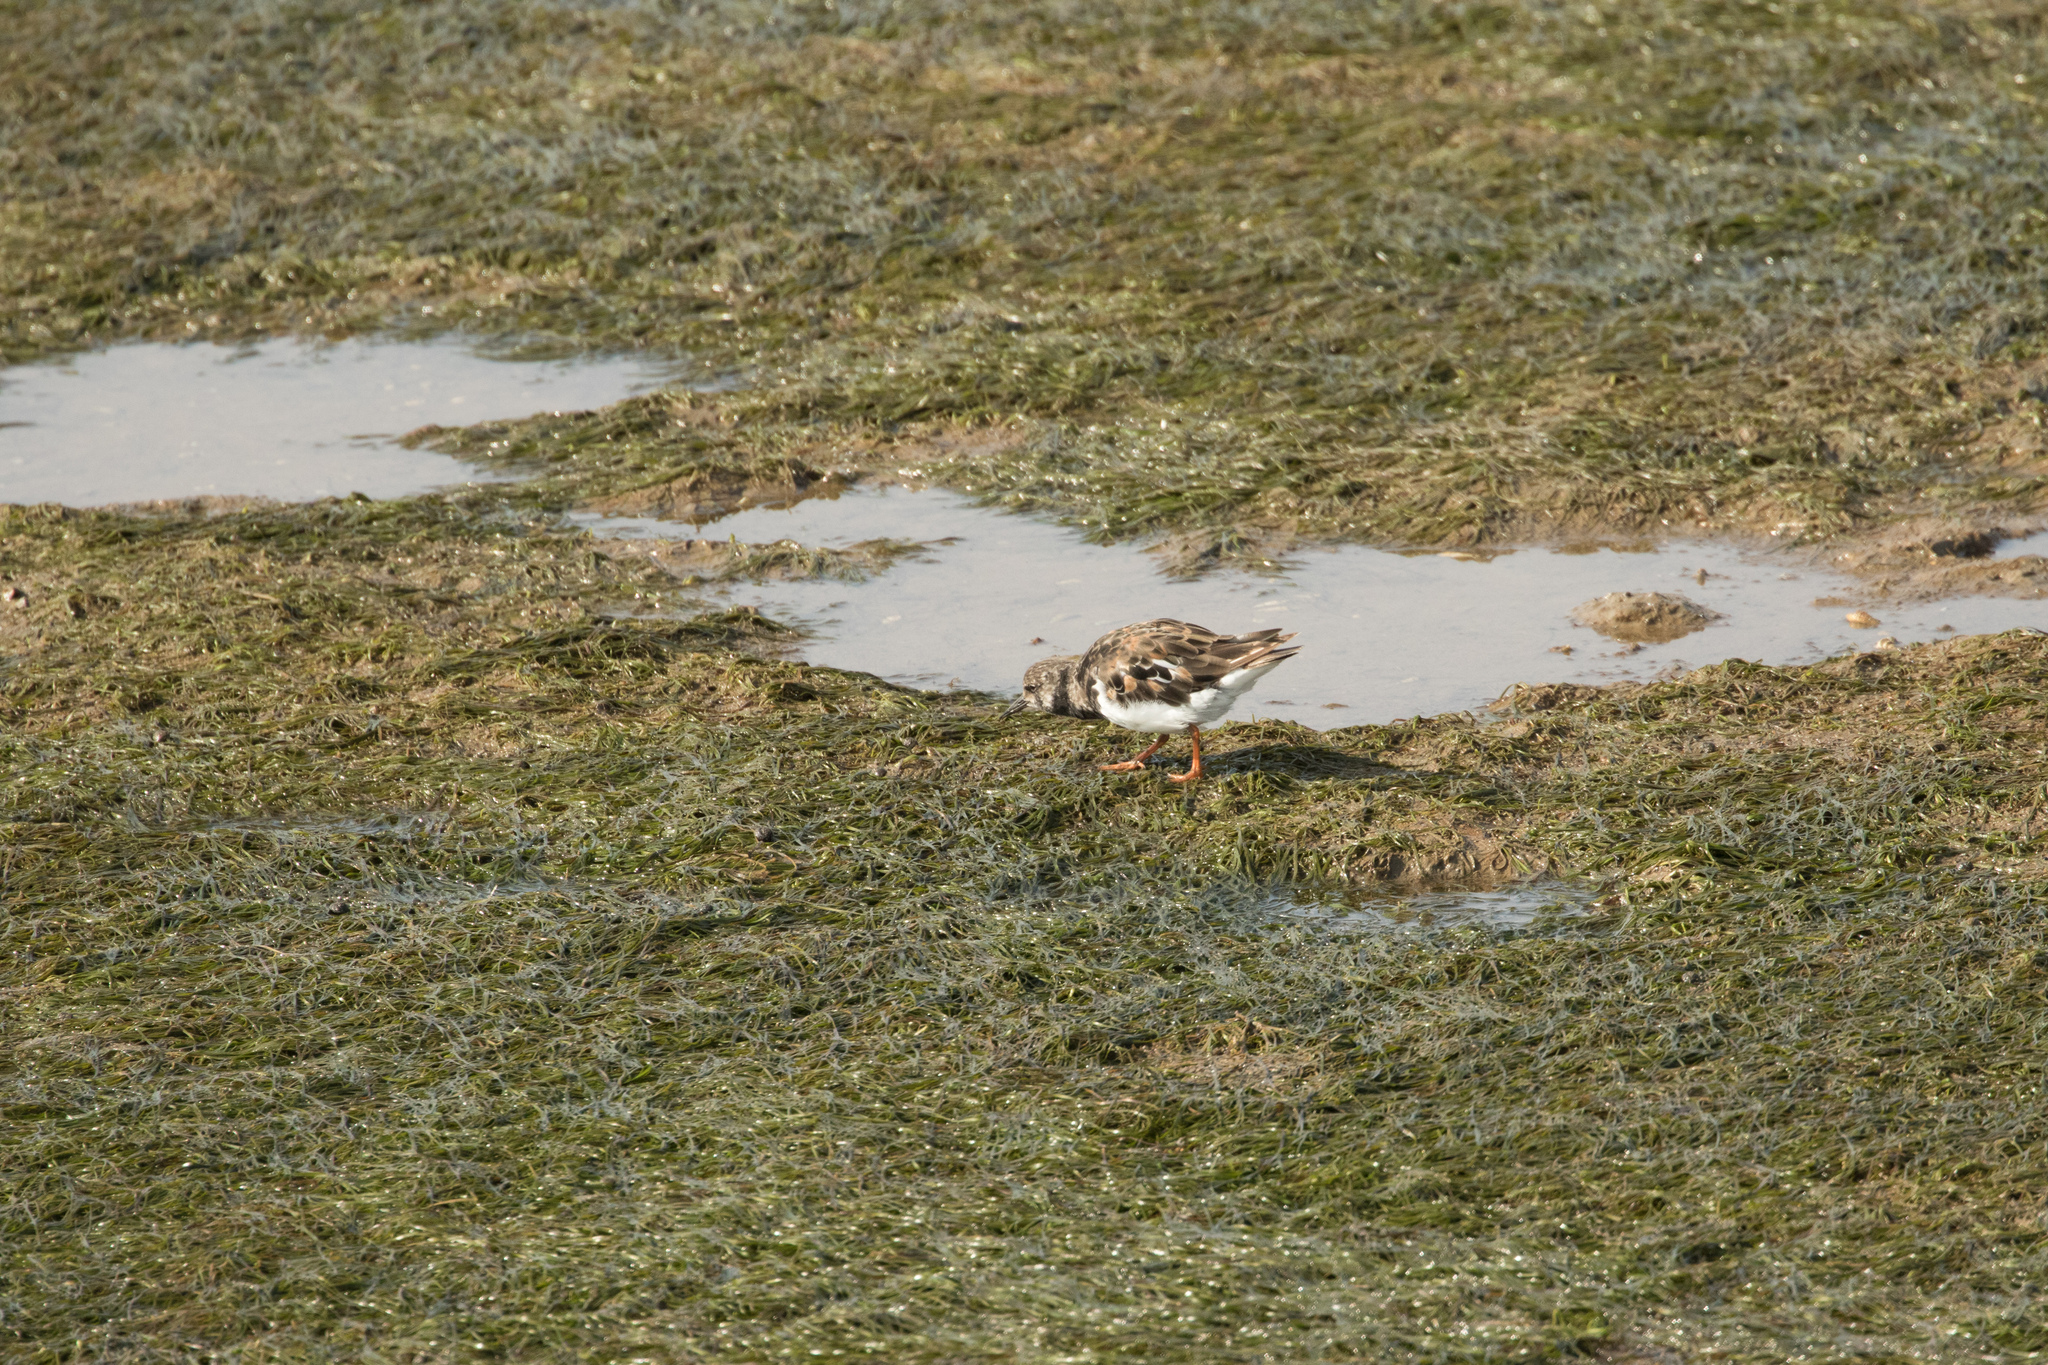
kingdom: Animalia
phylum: Chordata
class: Aves
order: Charadriiformes
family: Scolopacidae
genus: Arenaria
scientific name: Arenaria interpres
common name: Ruddy turnstone
